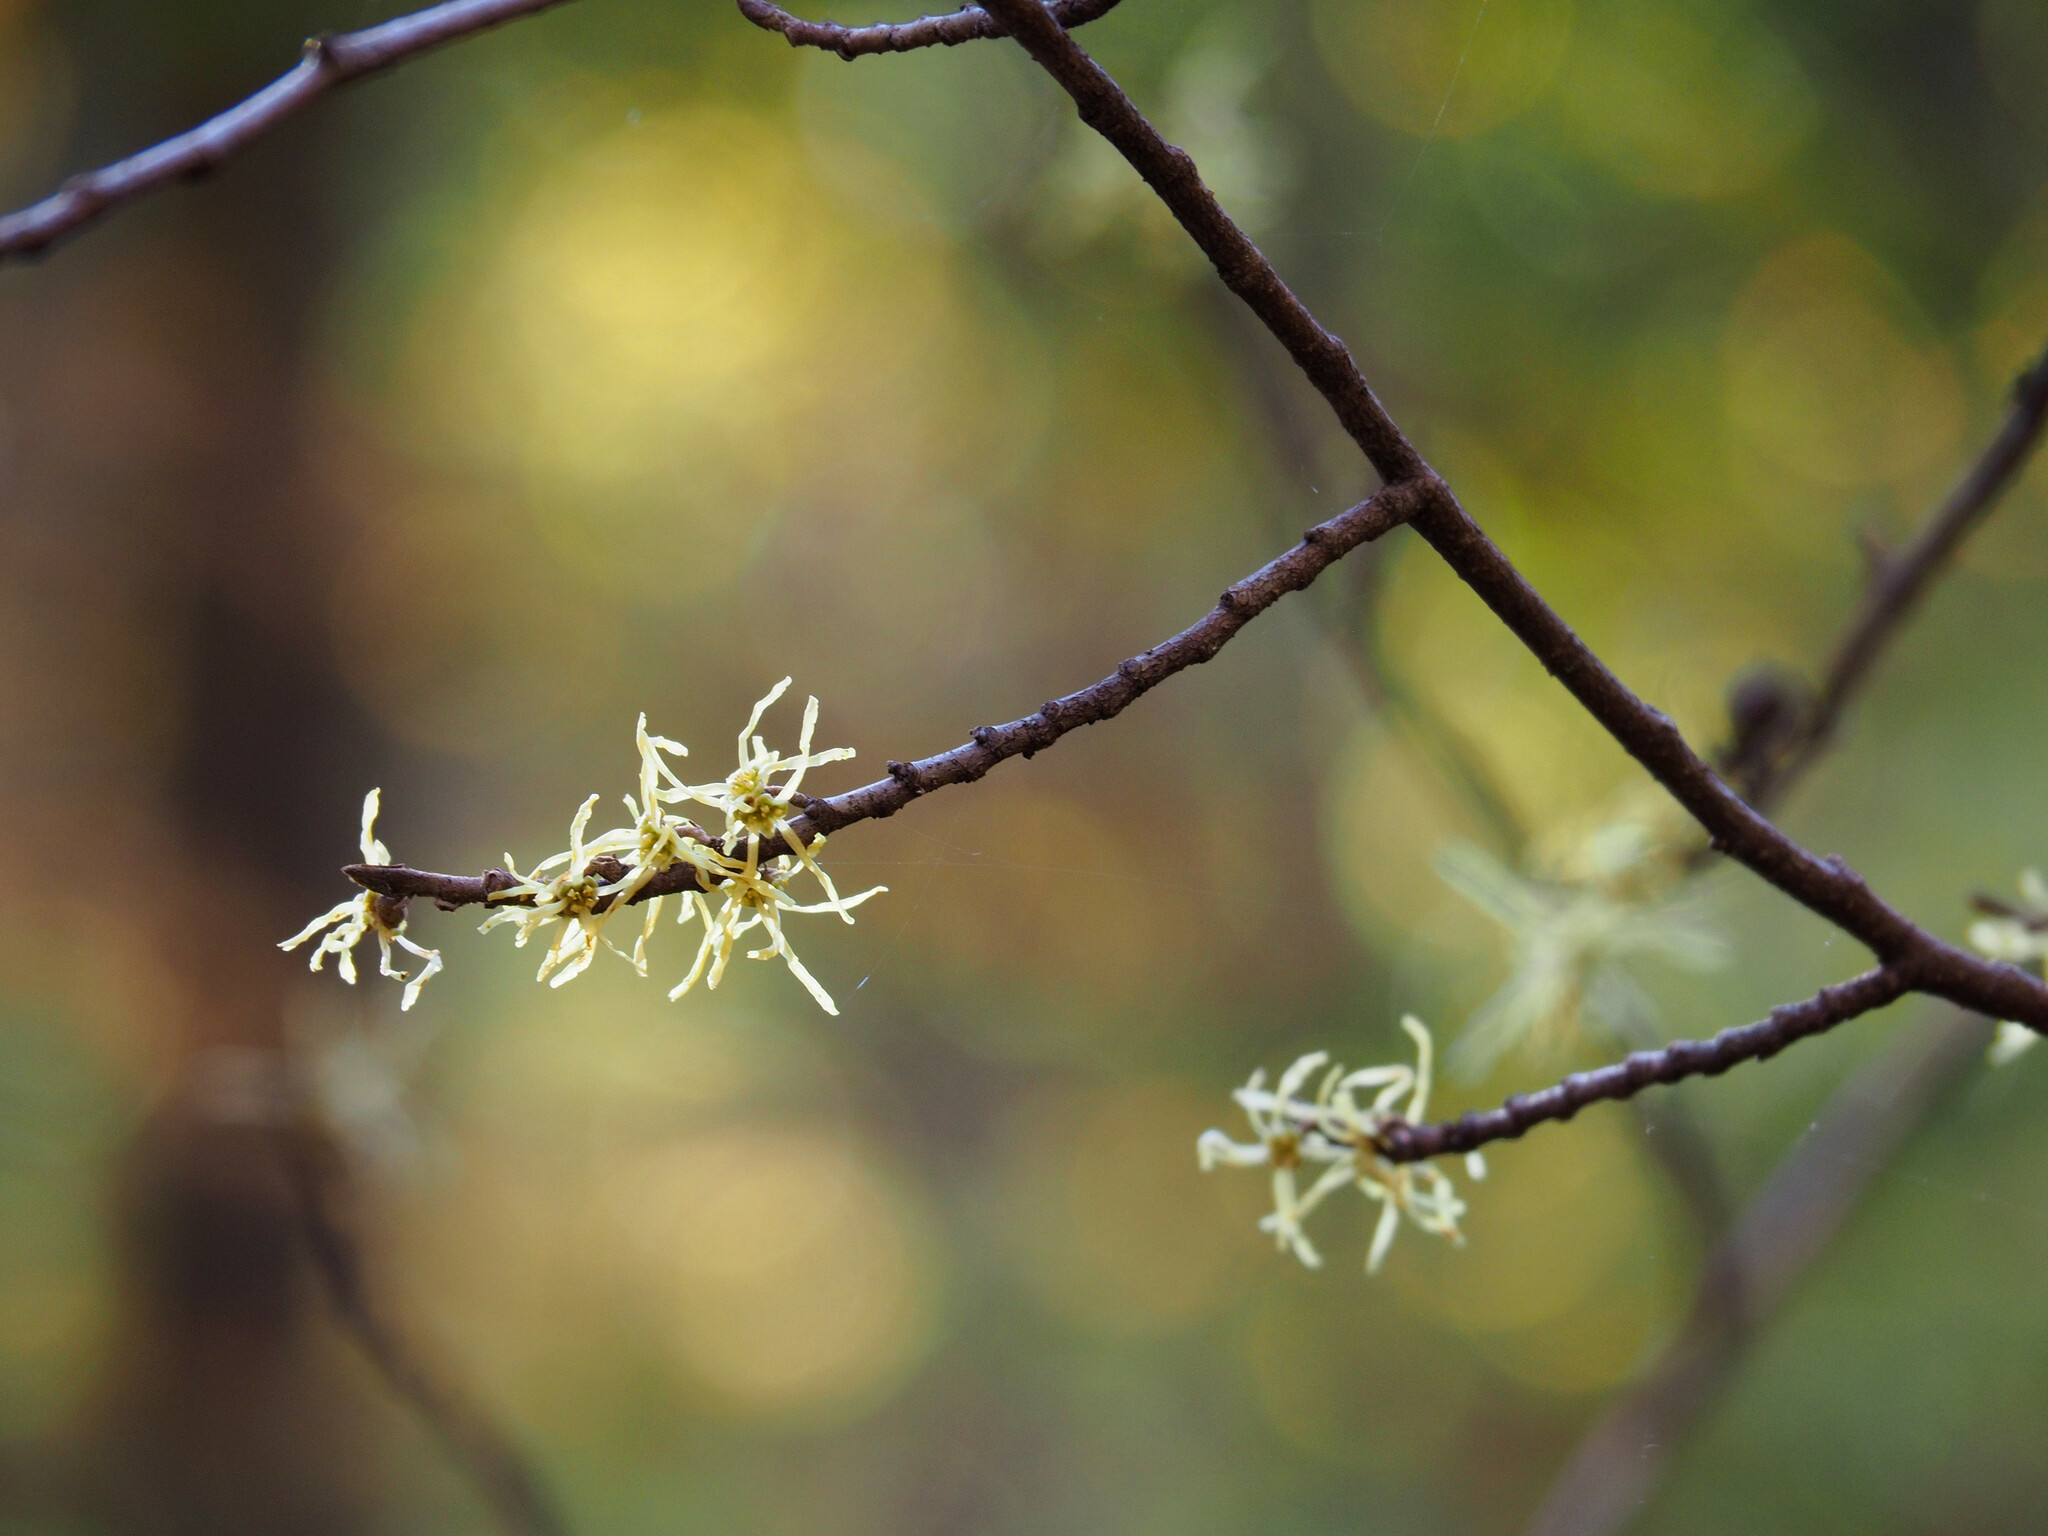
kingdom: Plantae
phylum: Tracheophyta
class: Magnoliopsida
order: Saxifragales
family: Hamamelidaceae
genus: Hamamelis
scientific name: Hamamelis virginiana
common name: Witch-hazel
